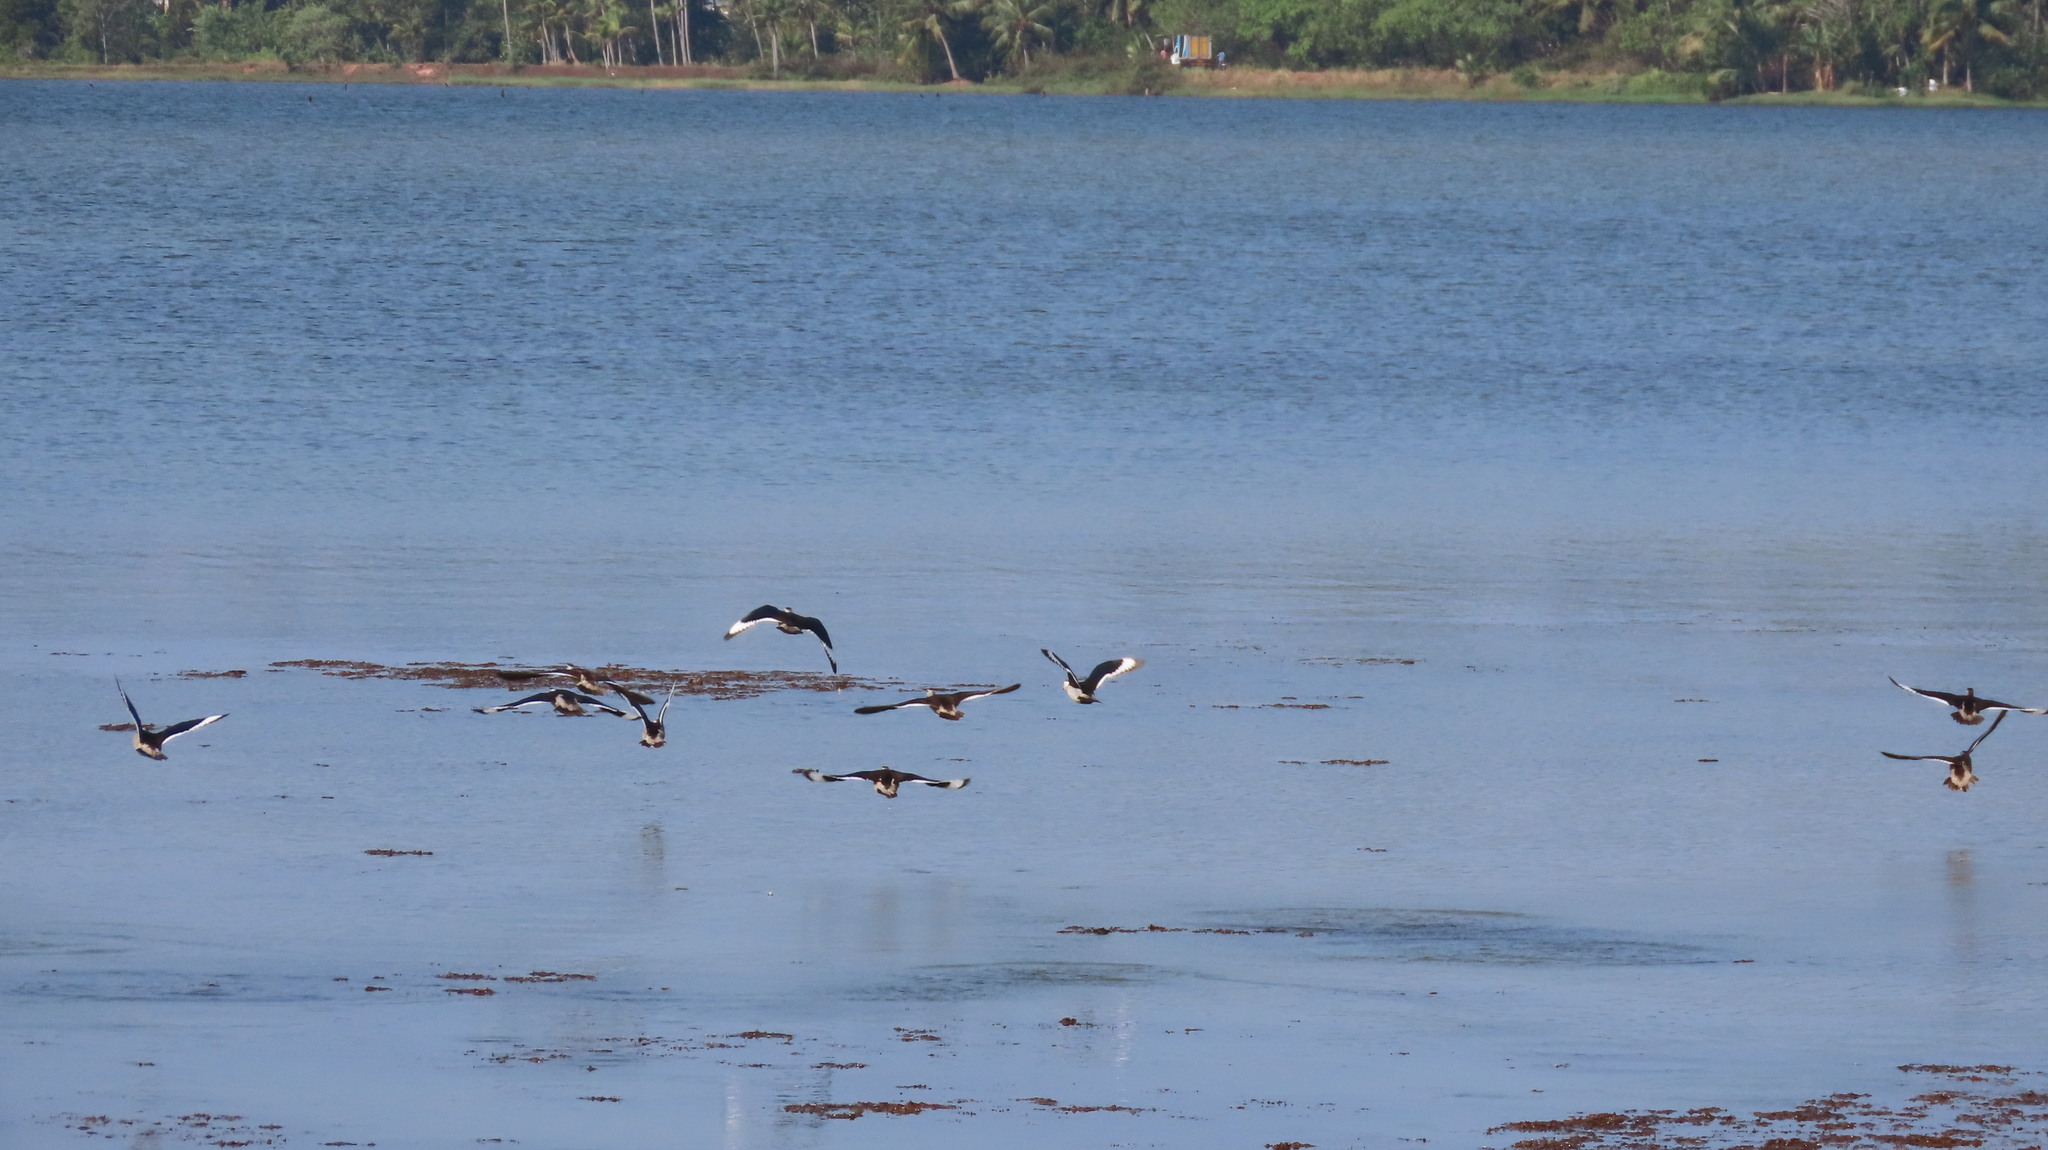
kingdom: Animalia
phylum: Chordata
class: Aves
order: Anseriformes
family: Anatidae
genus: Nettapus
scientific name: Nettapus coromandelianus
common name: Cotton pygmy-goose
